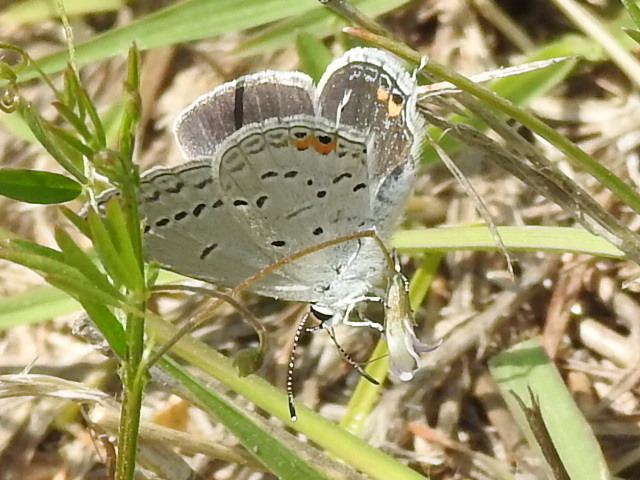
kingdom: Animalia
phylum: Arthropoda
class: Insecta
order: Lepidoptera
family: Lycaenidae
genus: Elkalyce
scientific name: Elkalyce comyntas
